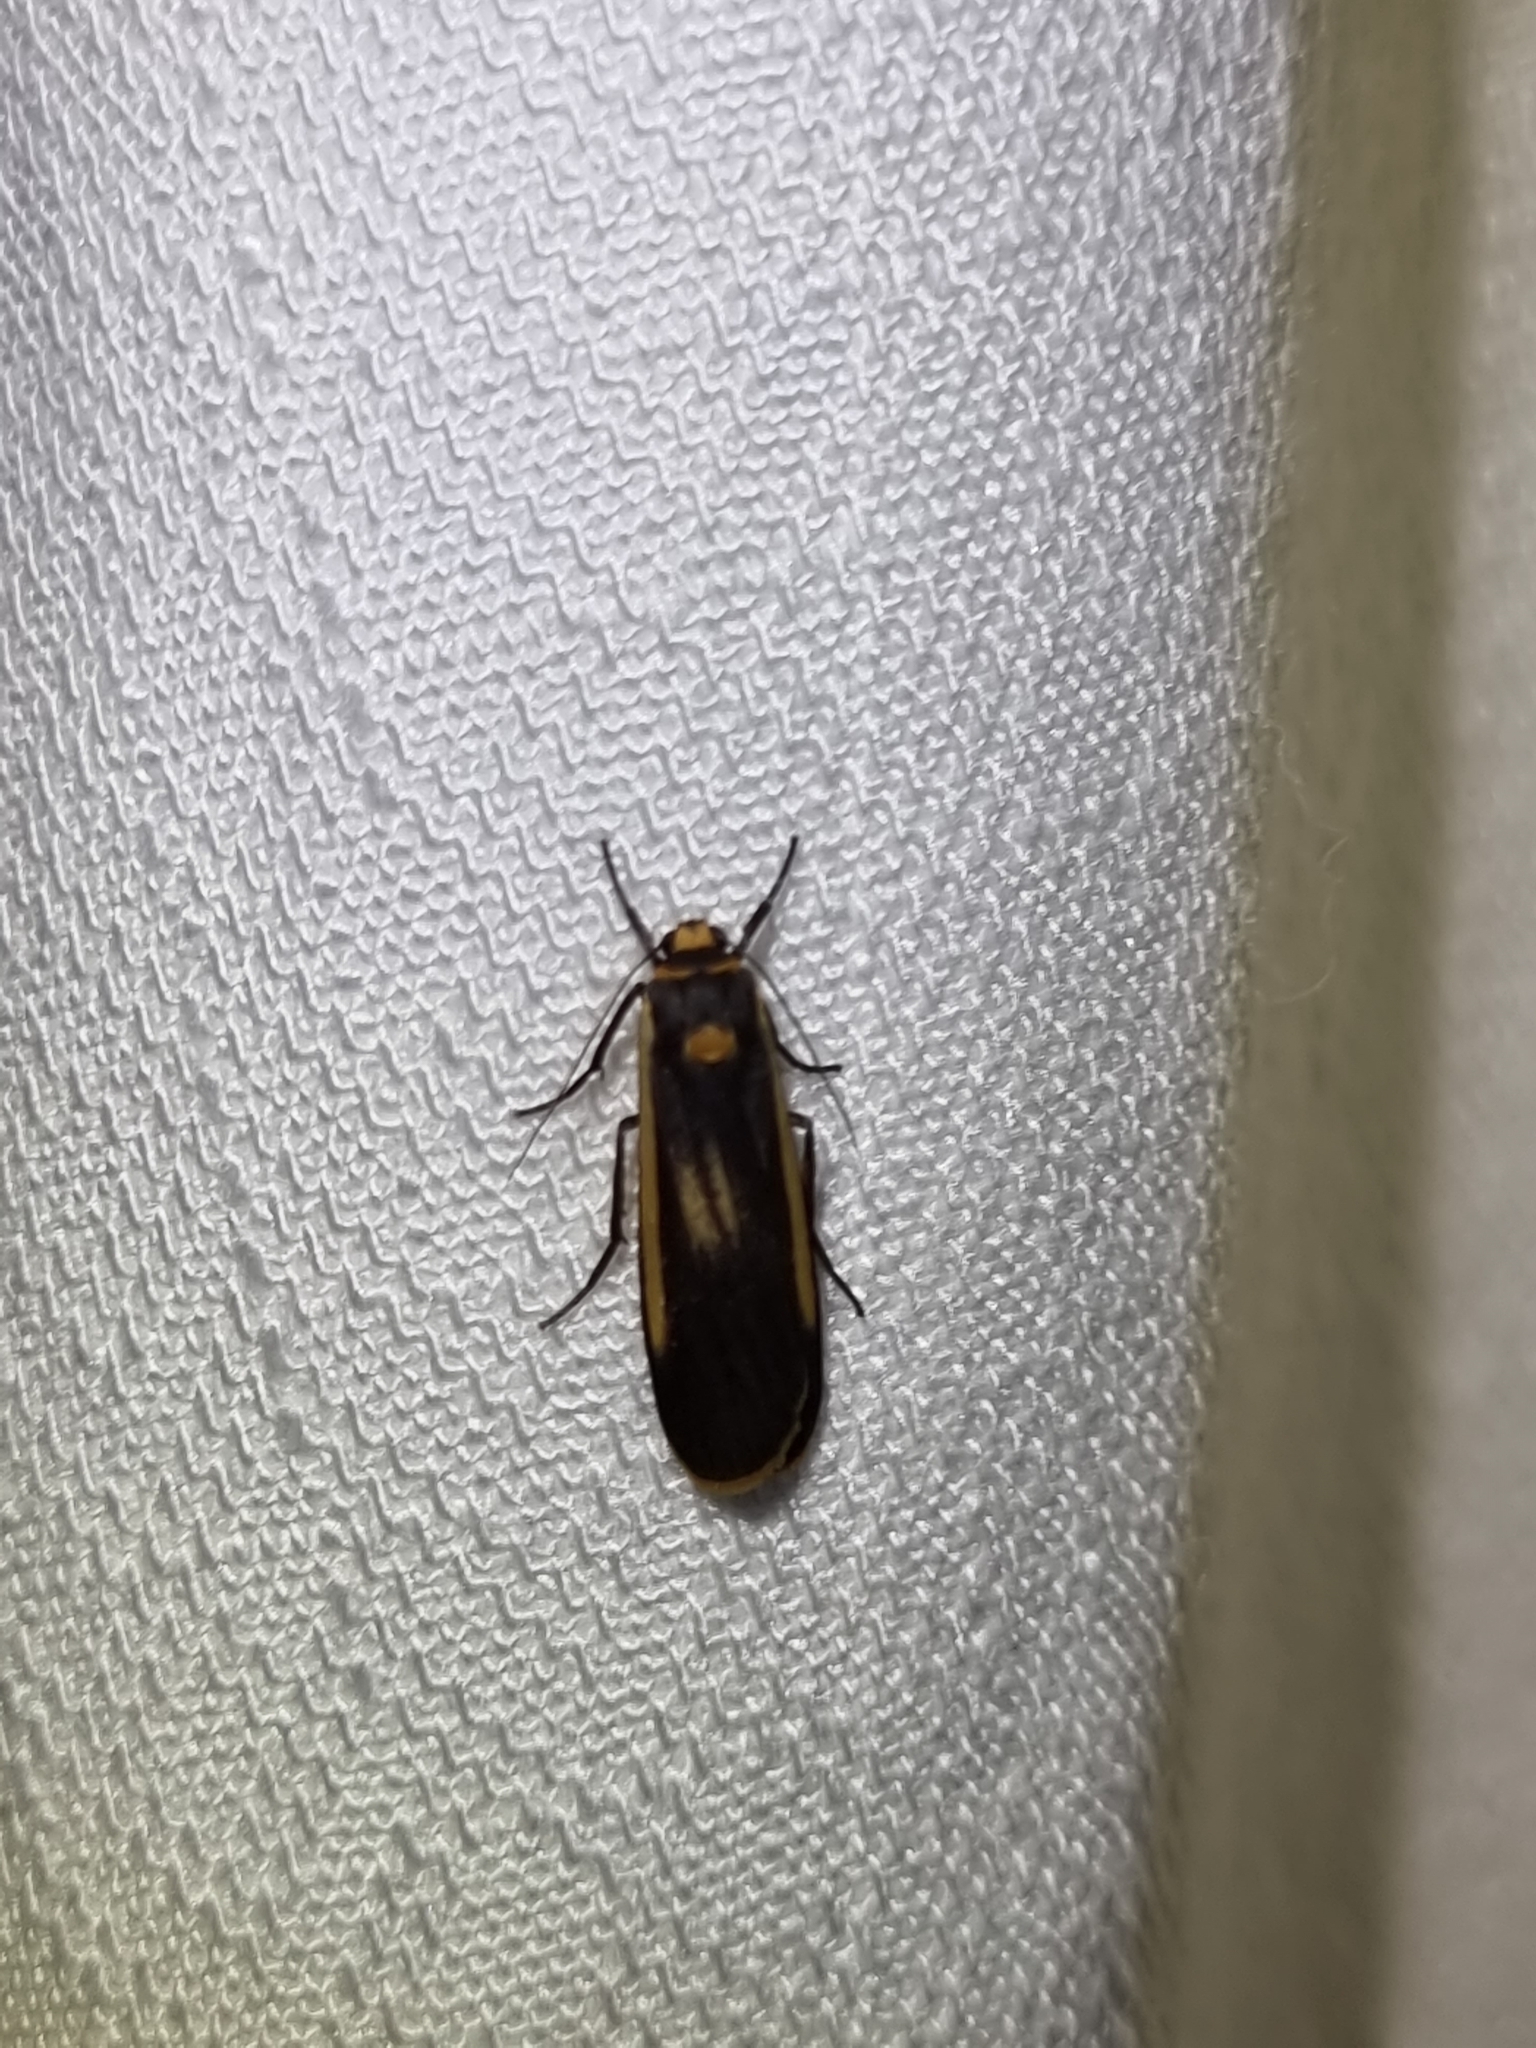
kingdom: Animalia
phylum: Arthropoda
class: Insecta
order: Lepidoptera
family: Erebidae
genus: Brunia
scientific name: Brunia replana
